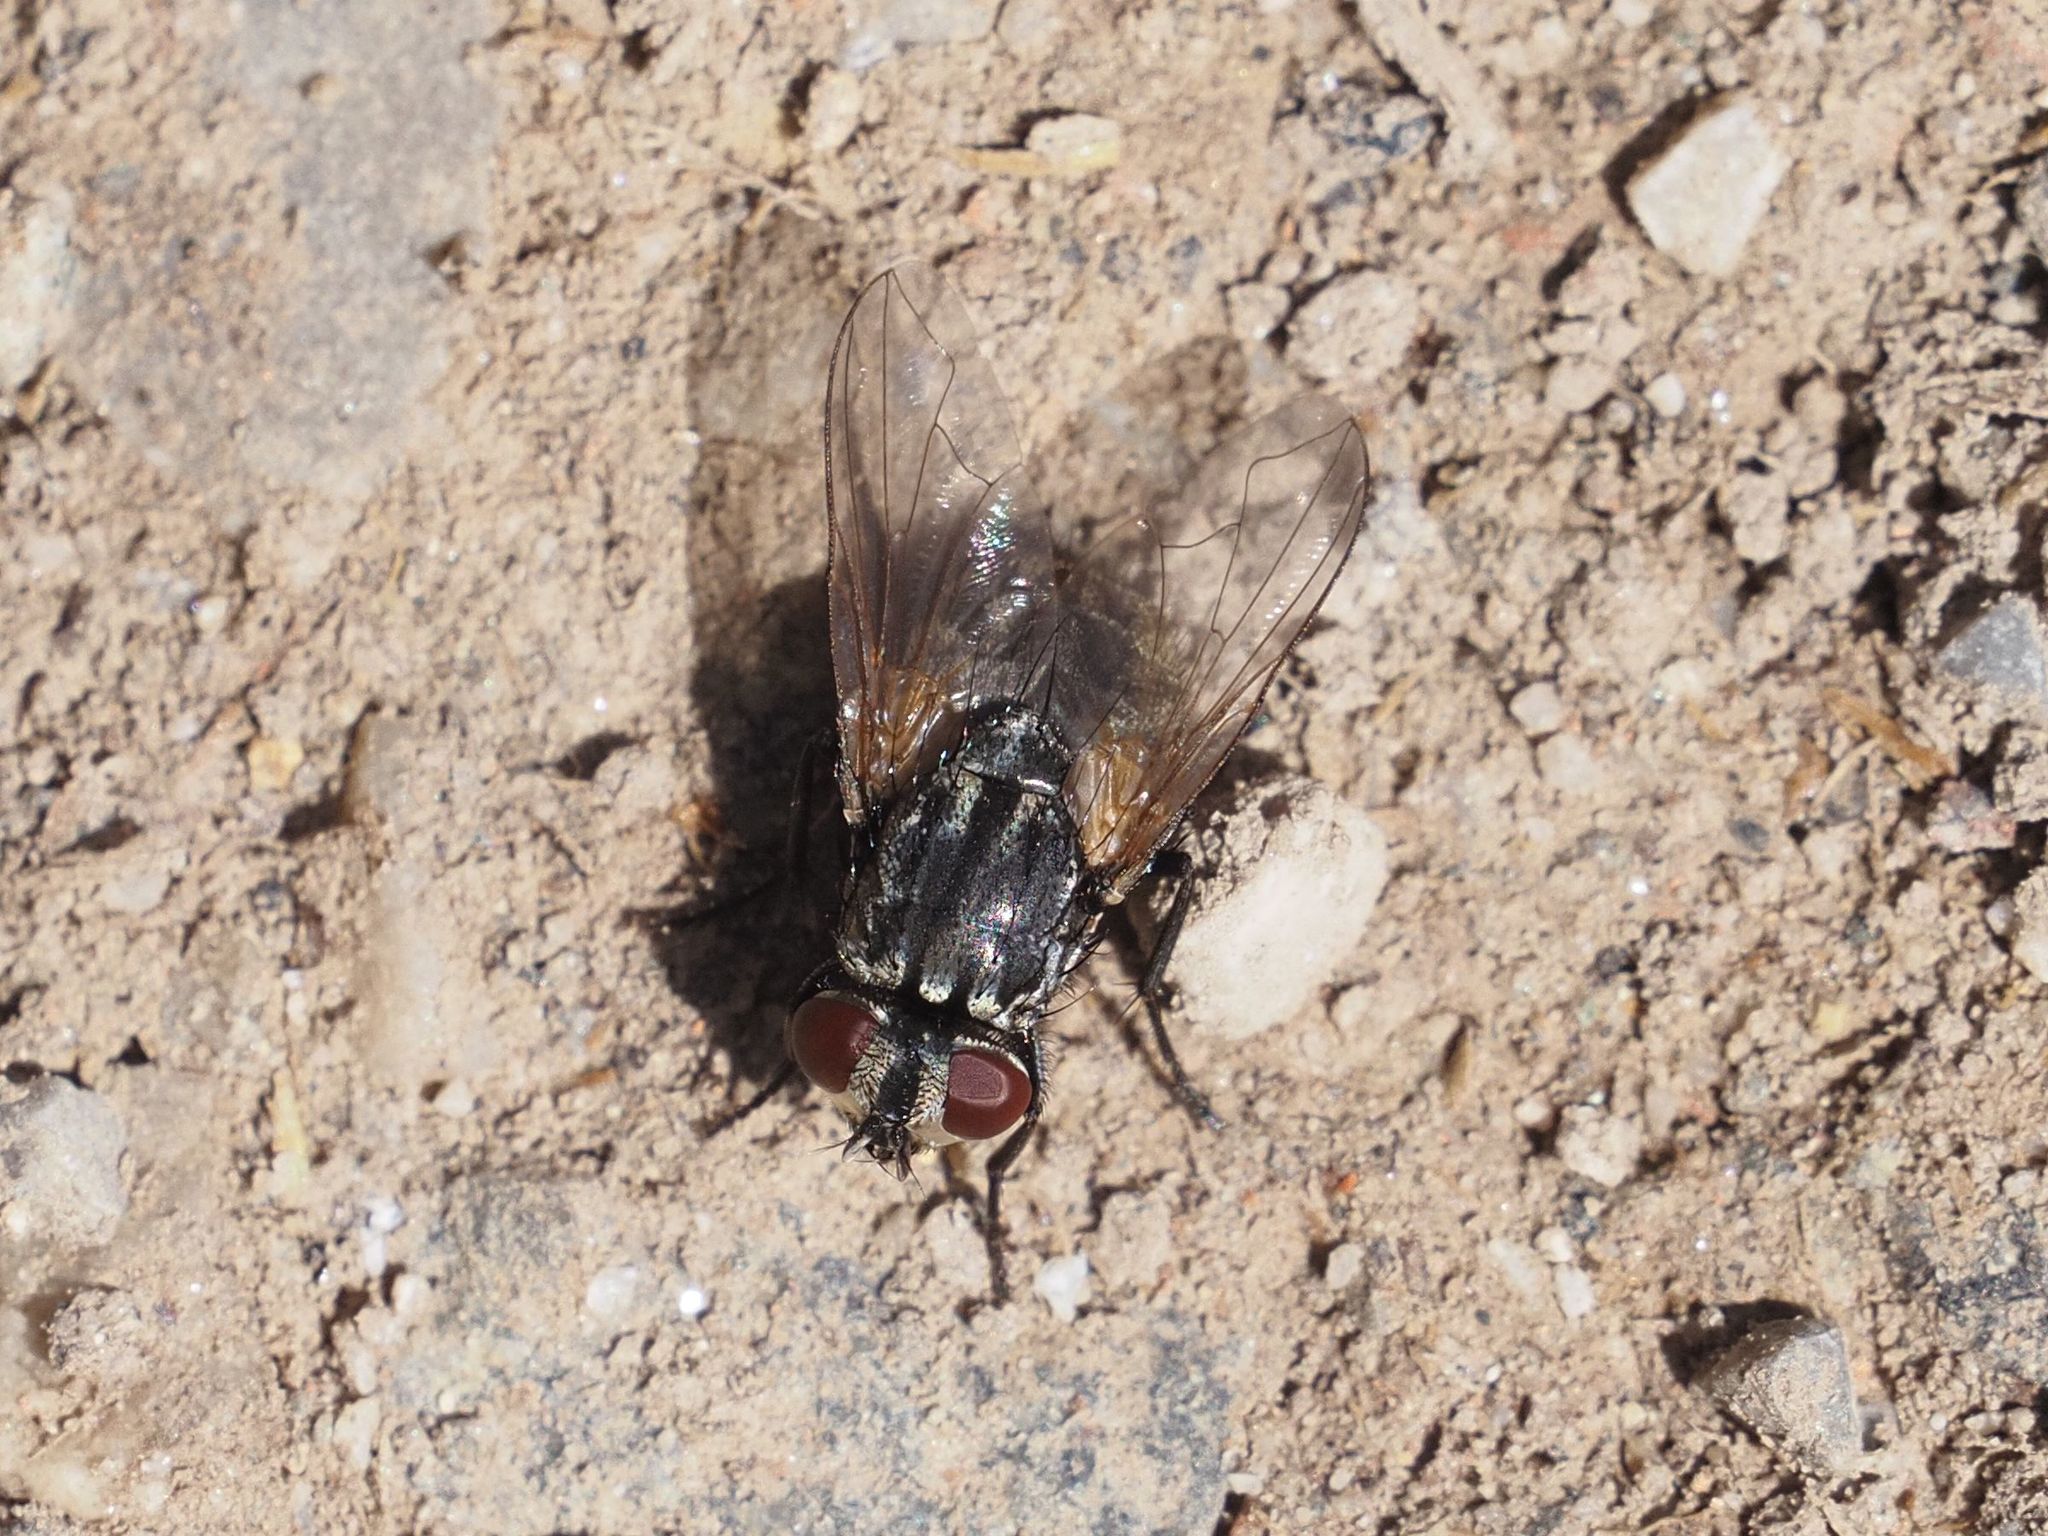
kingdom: Animalia
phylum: Arthropoda
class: Insecta
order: Diptera
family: Muscidae
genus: Musca
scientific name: Musca autumnalis
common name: Face fly
